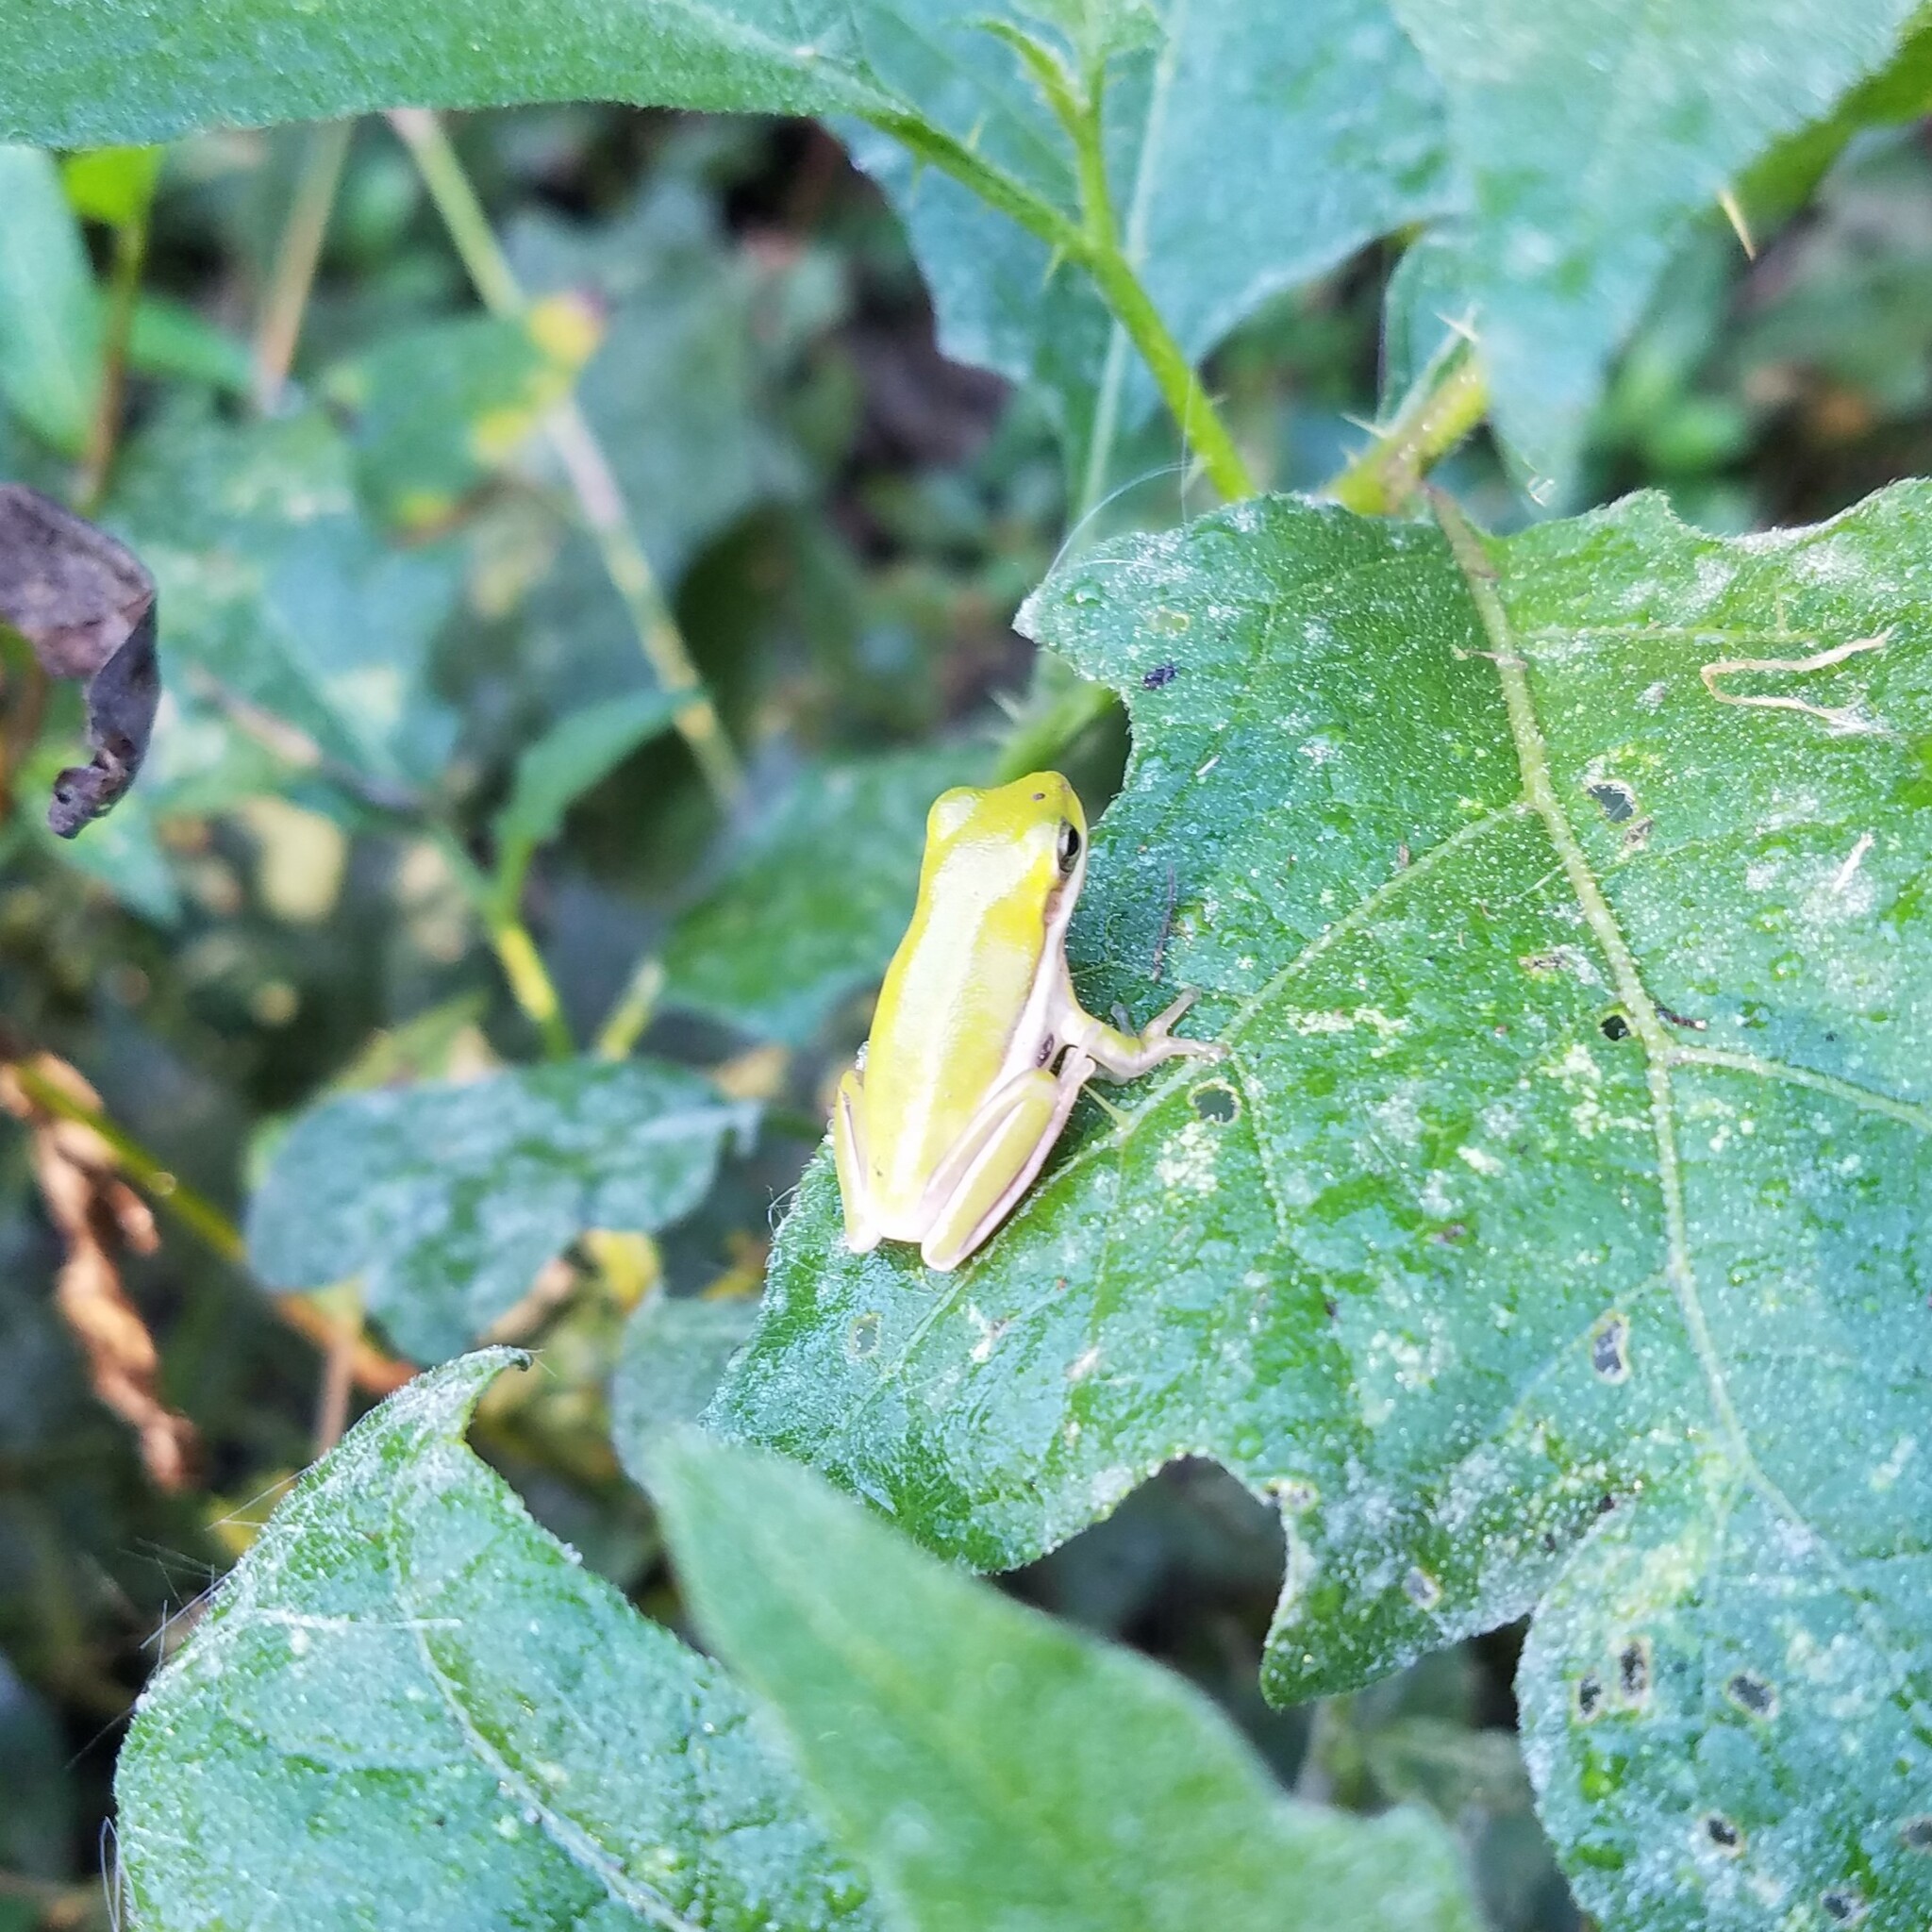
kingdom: Animalia
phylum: Chordata
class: Amphibia
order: Anura
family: Hylidae
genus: Dryophytes
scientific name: Dryophytes cinereus
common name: Green treefrog
